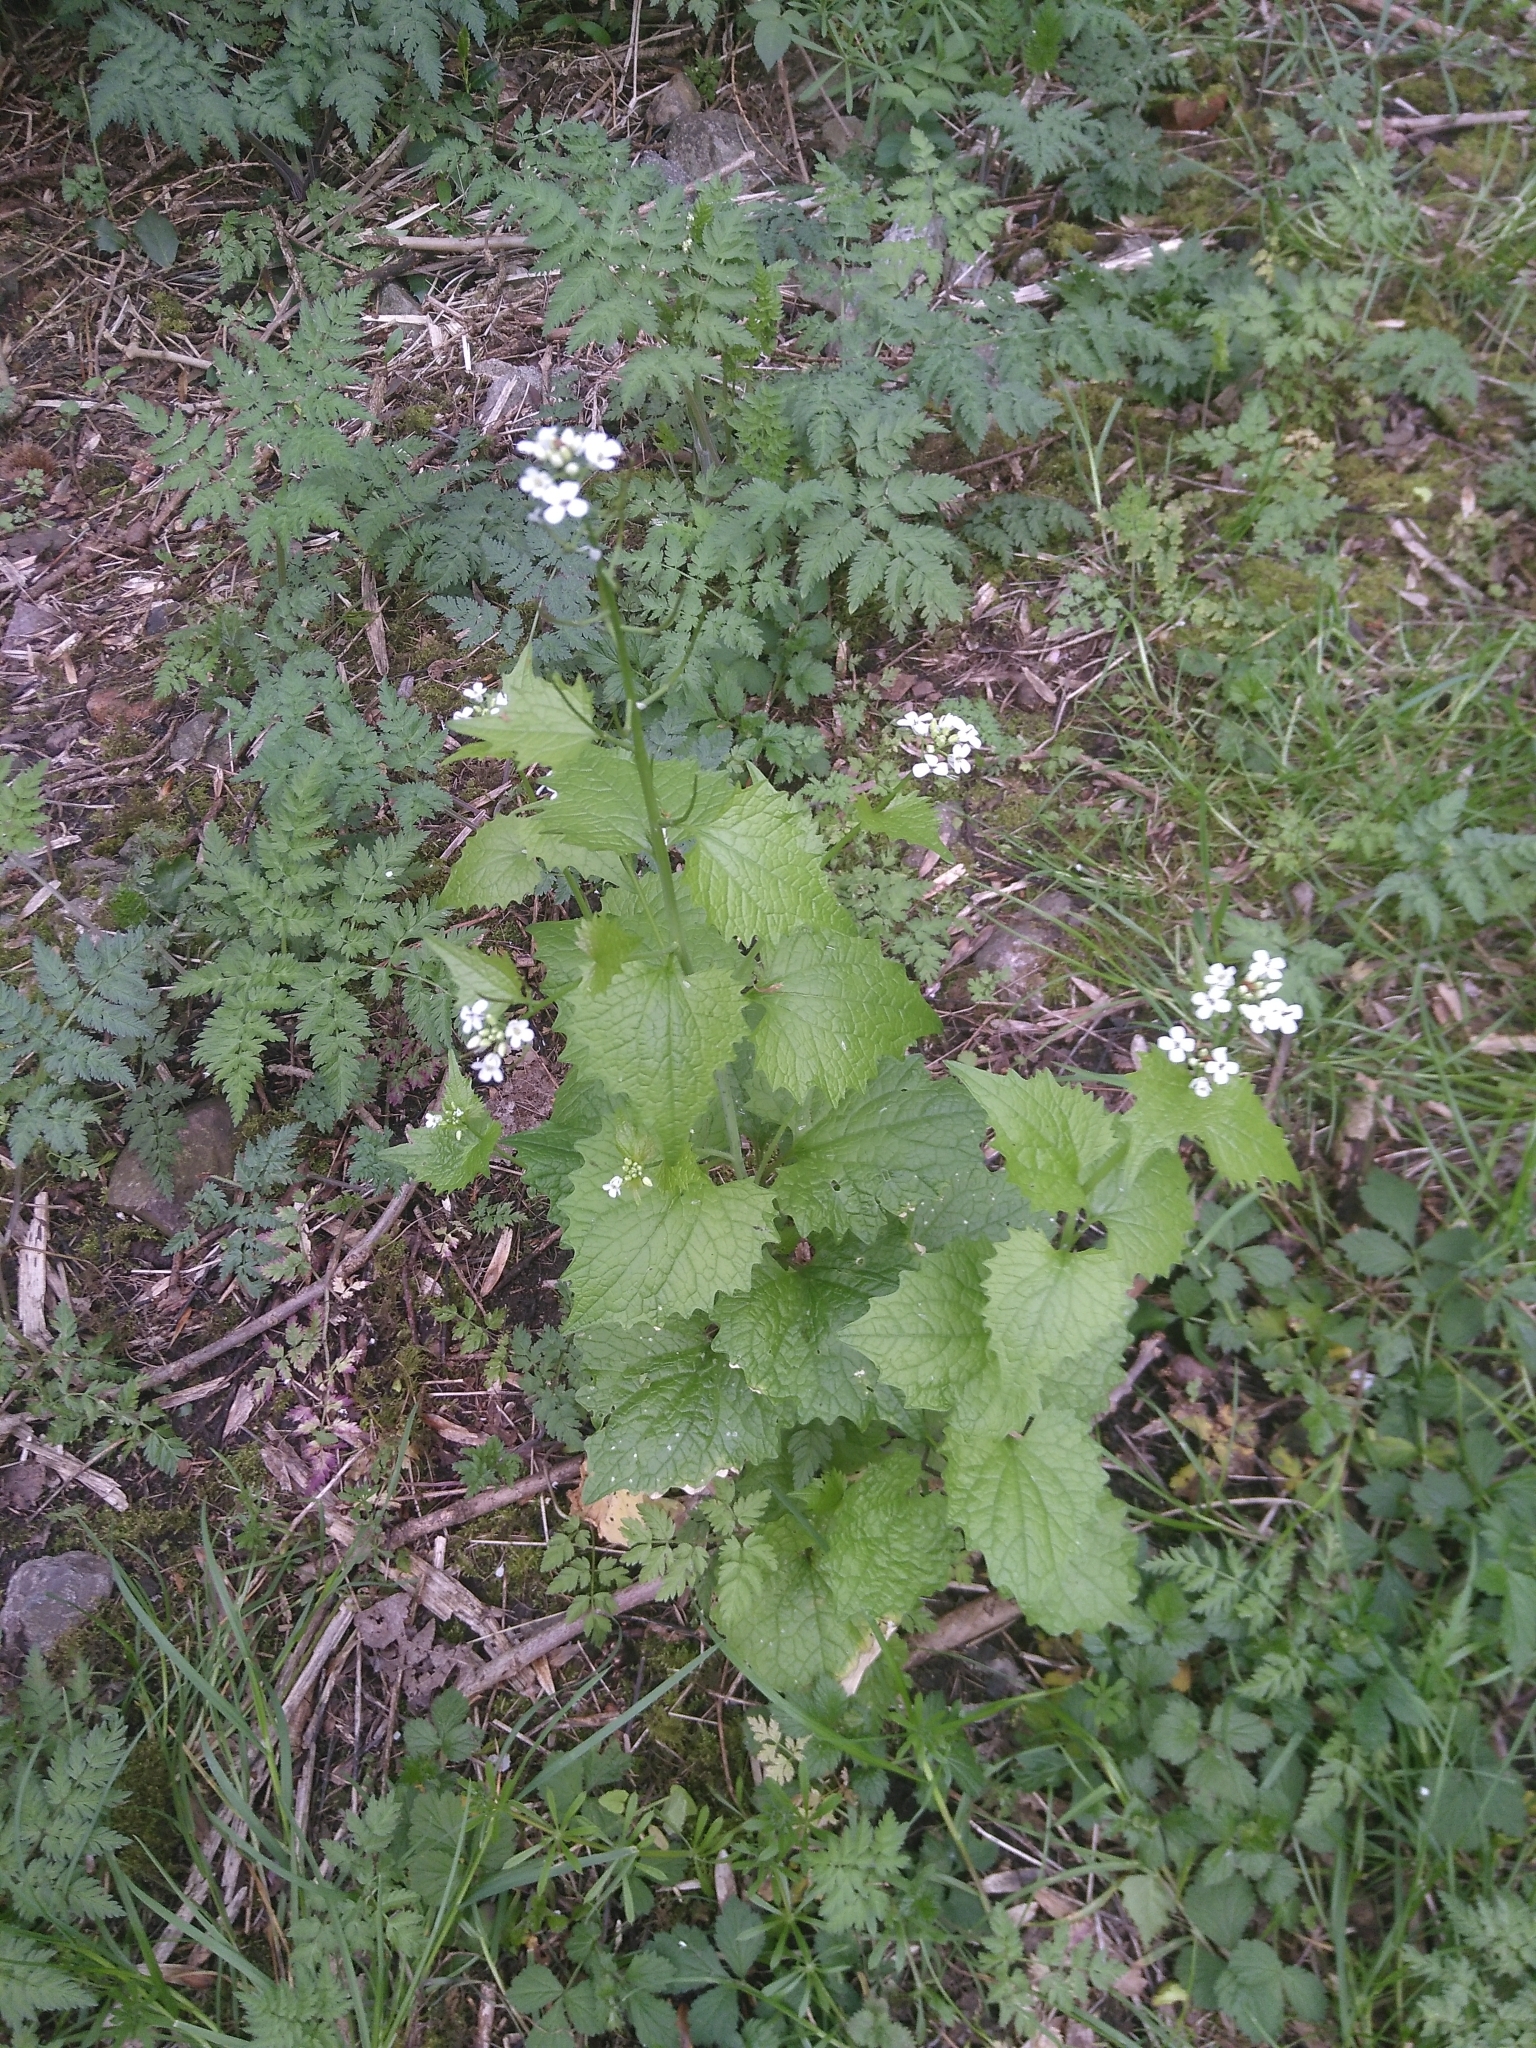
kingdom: Plantae
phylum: Tracheophyta
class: Magnoliopsida
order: Brassicales
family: Brassicaceae
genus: Alliaria
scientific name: Alliaria petiolata
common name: Garlic mustard
